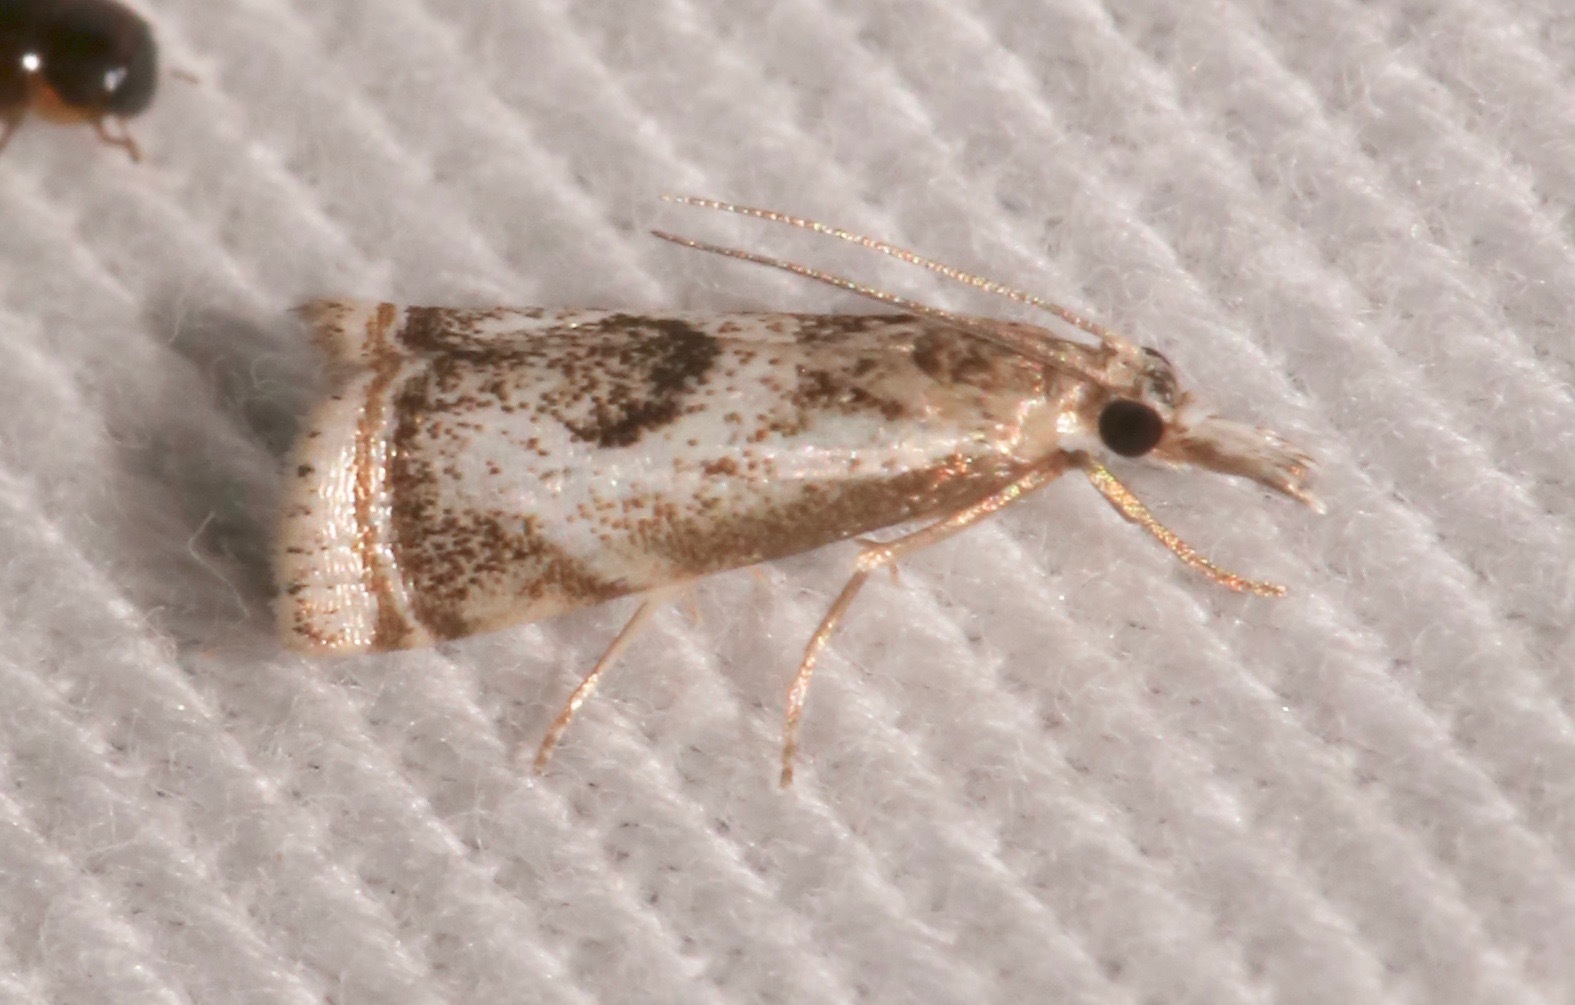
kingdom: Animalia
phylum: Arthropoda
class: Insecta
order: Lepidoptera
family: Crambidae
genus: Microcrambus
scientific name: Microcrambus elegans
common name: Elegant grass-veneer
